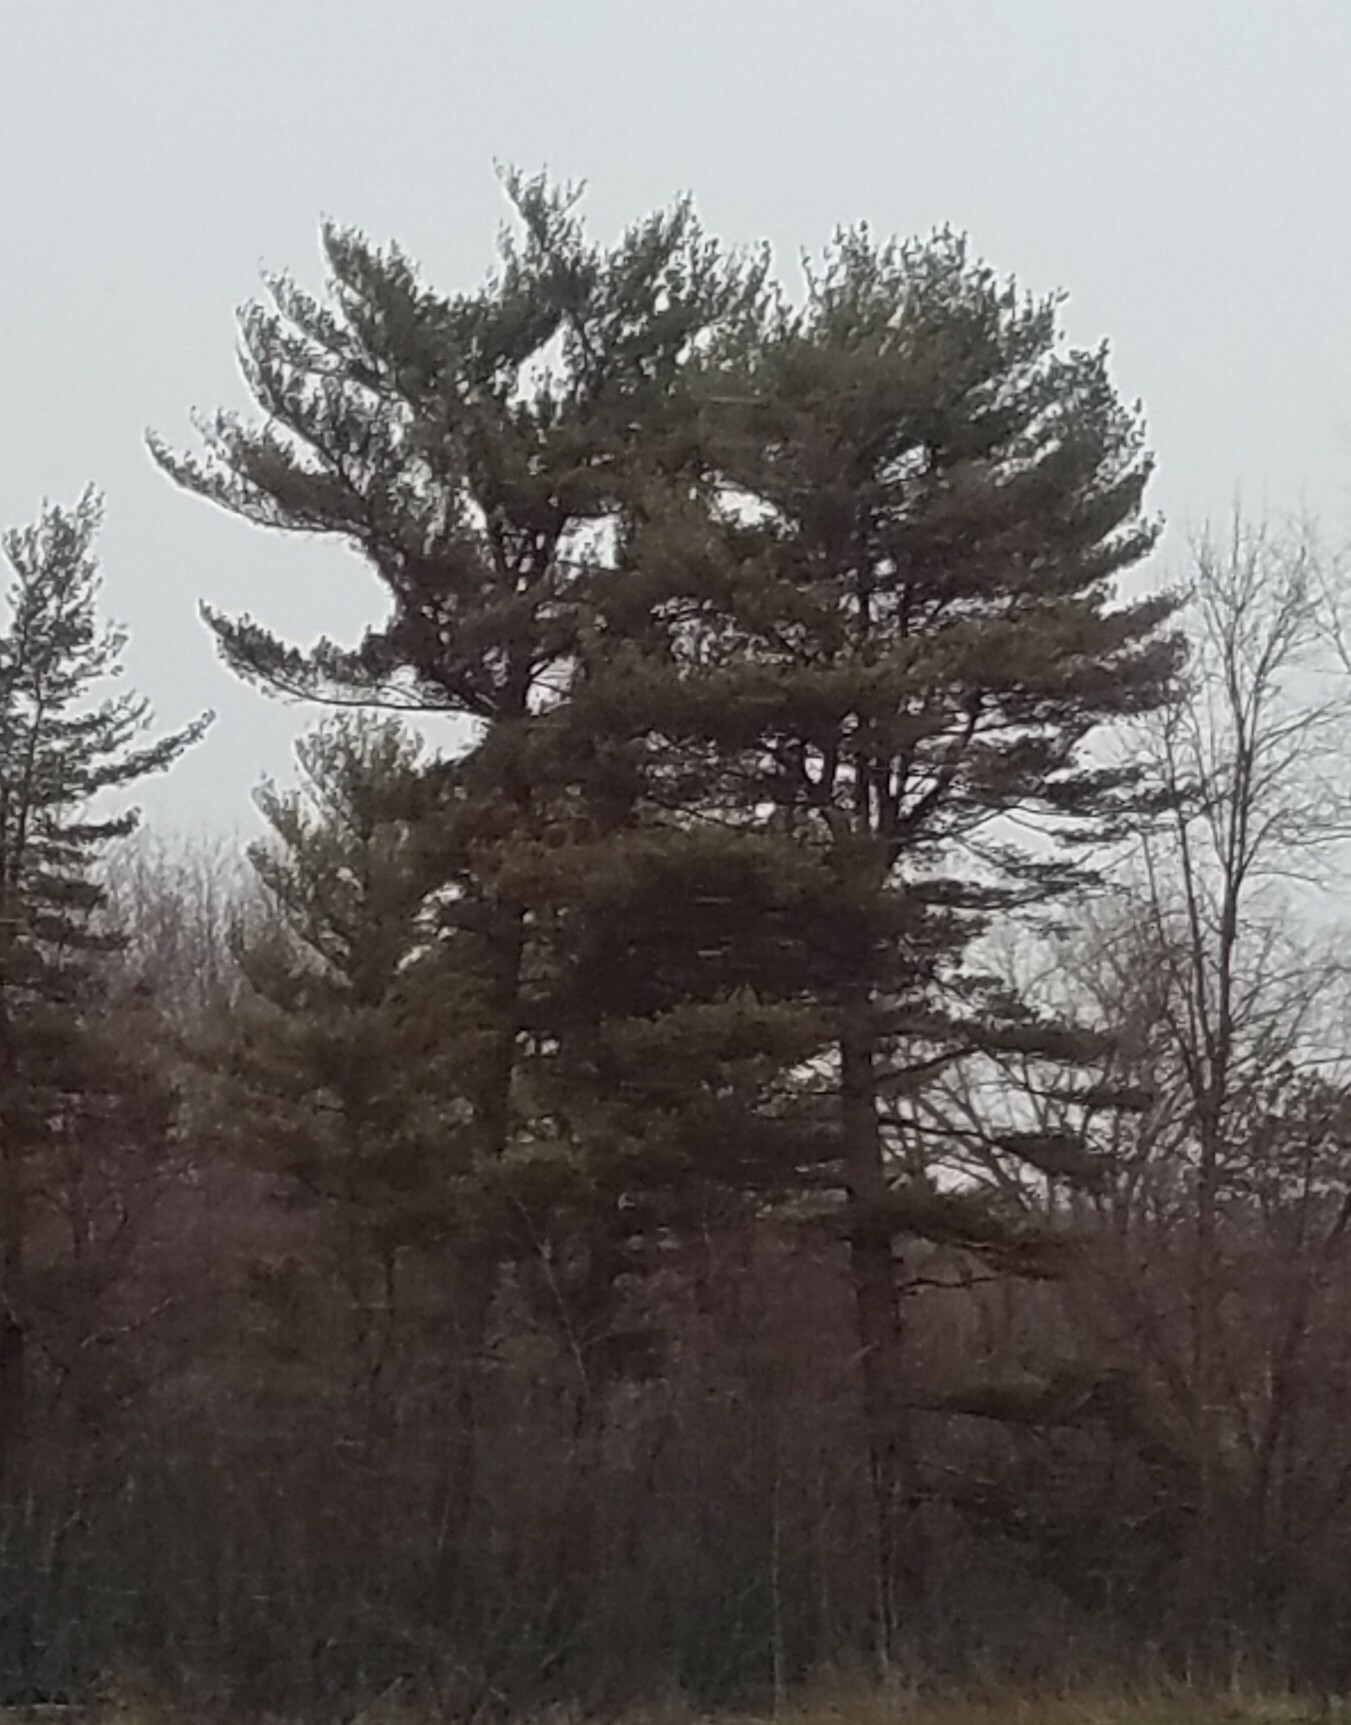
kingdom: Plantae
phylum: Tracheophyta
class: Pinopsida
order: Pinales
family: Pinaceae
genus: Pinus
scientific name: Pinus strobus
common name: Weymouth pine
